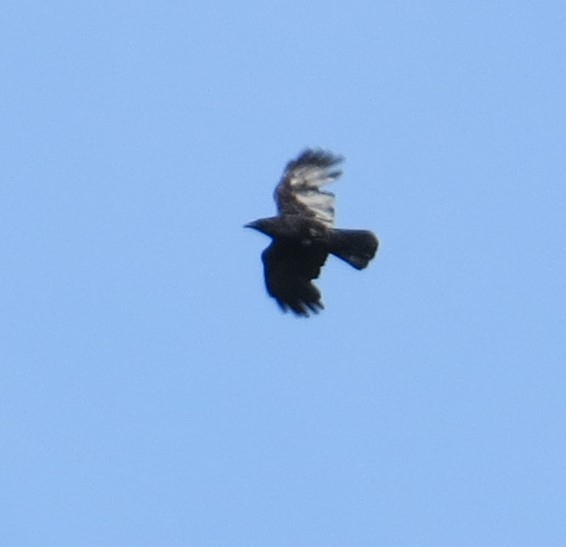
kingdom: Animalia
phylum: Chordata
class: Aves
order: Passeriformes
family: Corvidae
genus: Corvus
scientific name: Corvus brachyrhynchos
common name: American crow
